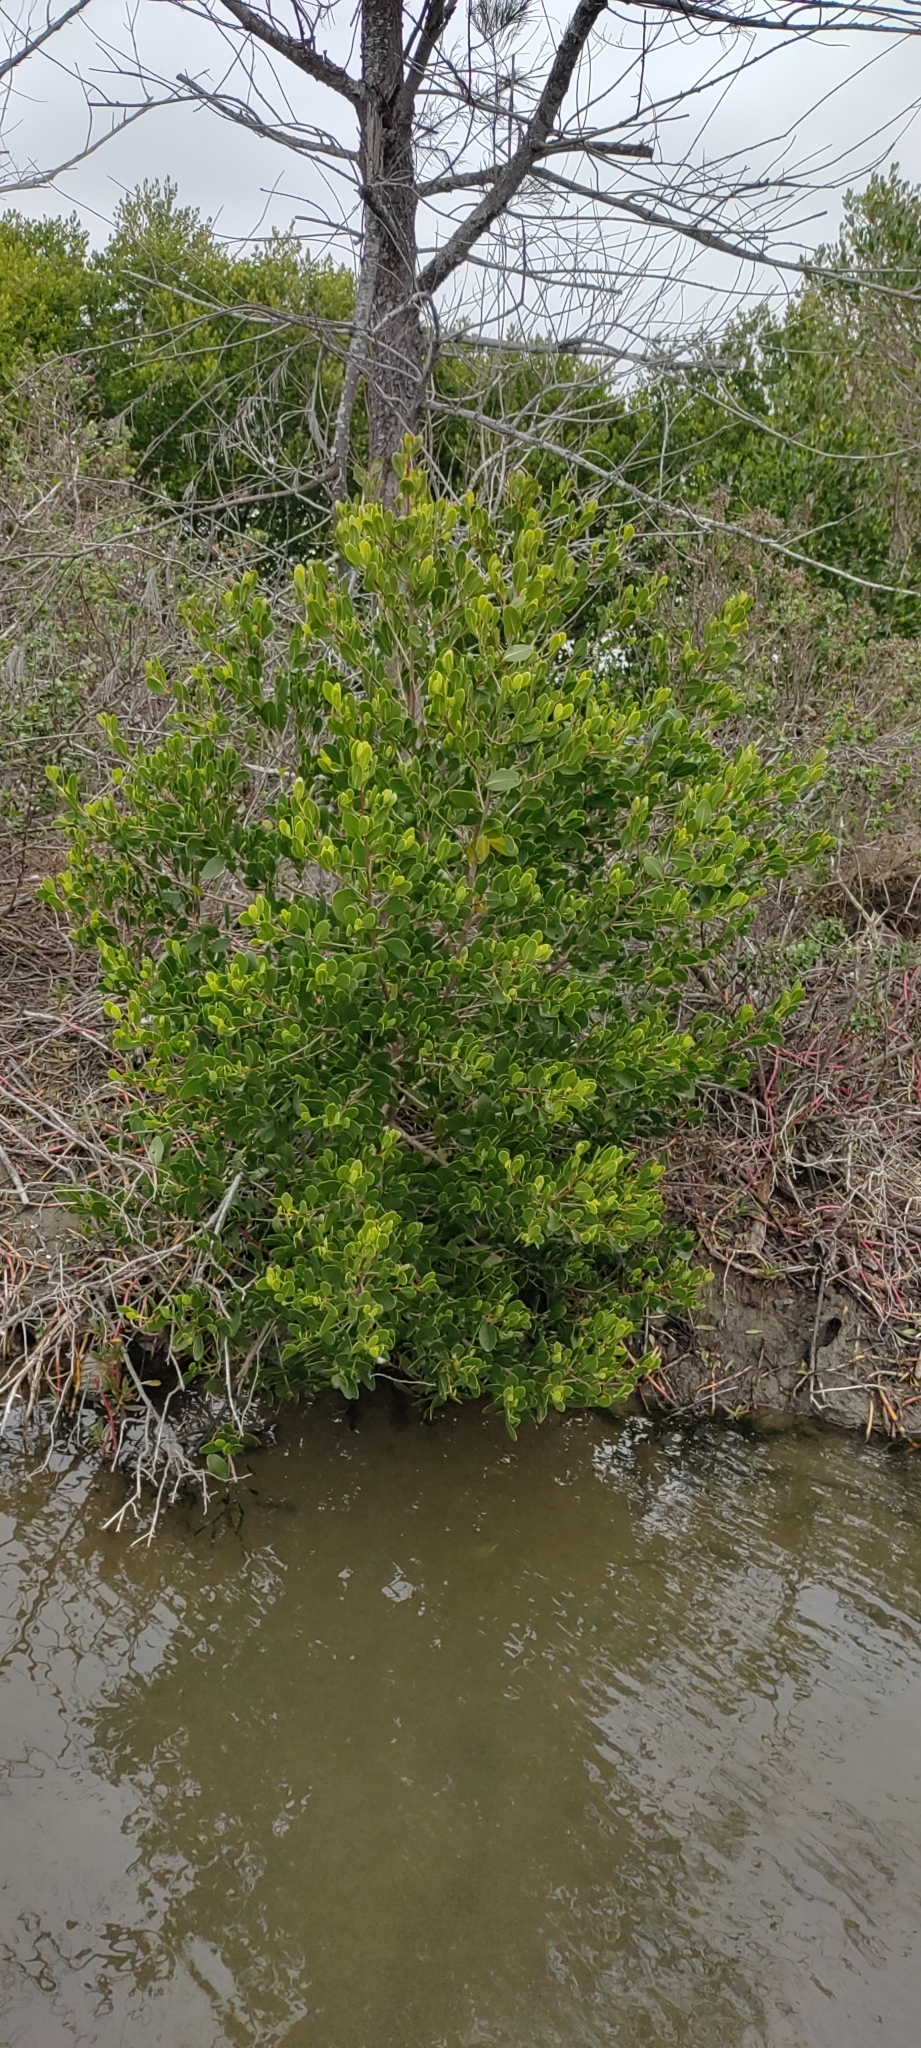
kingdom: Plantae
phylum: Tracheophyta
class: Magnoliopsida
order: Myrtales
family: Combretaceae
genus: Lumnitzera
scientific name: Lumnitzera racemosa
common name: White-flowered black mangrove
